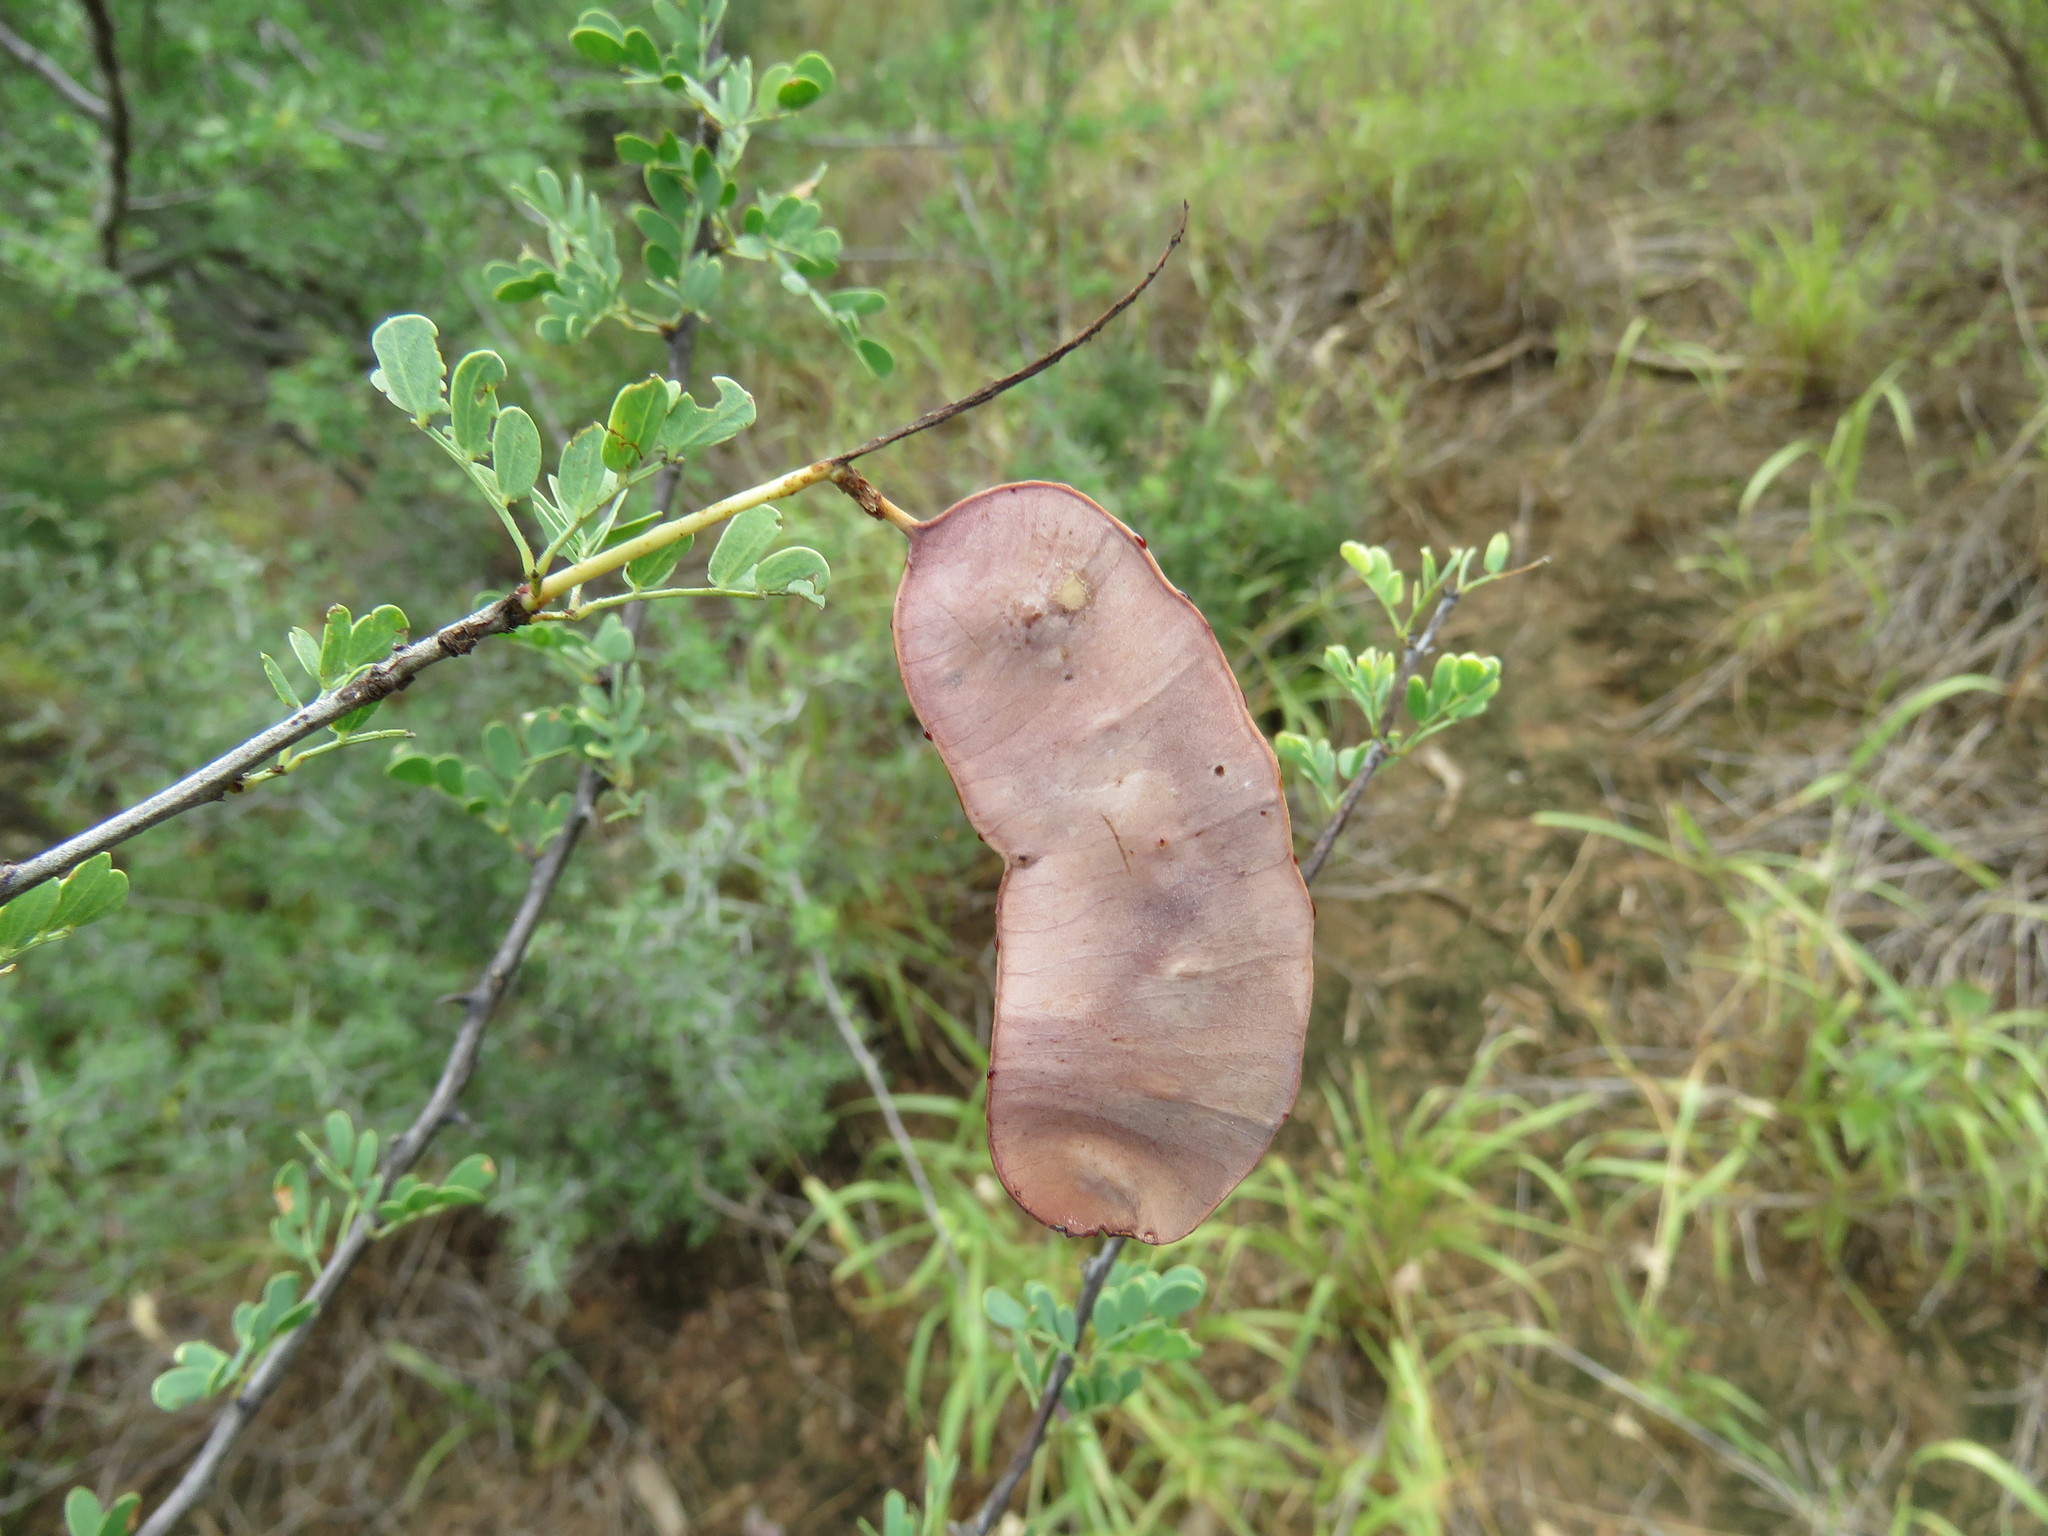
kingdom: Plantae
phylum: Tracheophyta
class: Magnoliopsida
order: Fabales
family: Fabaceae
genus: Senegalia
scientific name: Senegalia greggii
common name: Texas-mimosa
